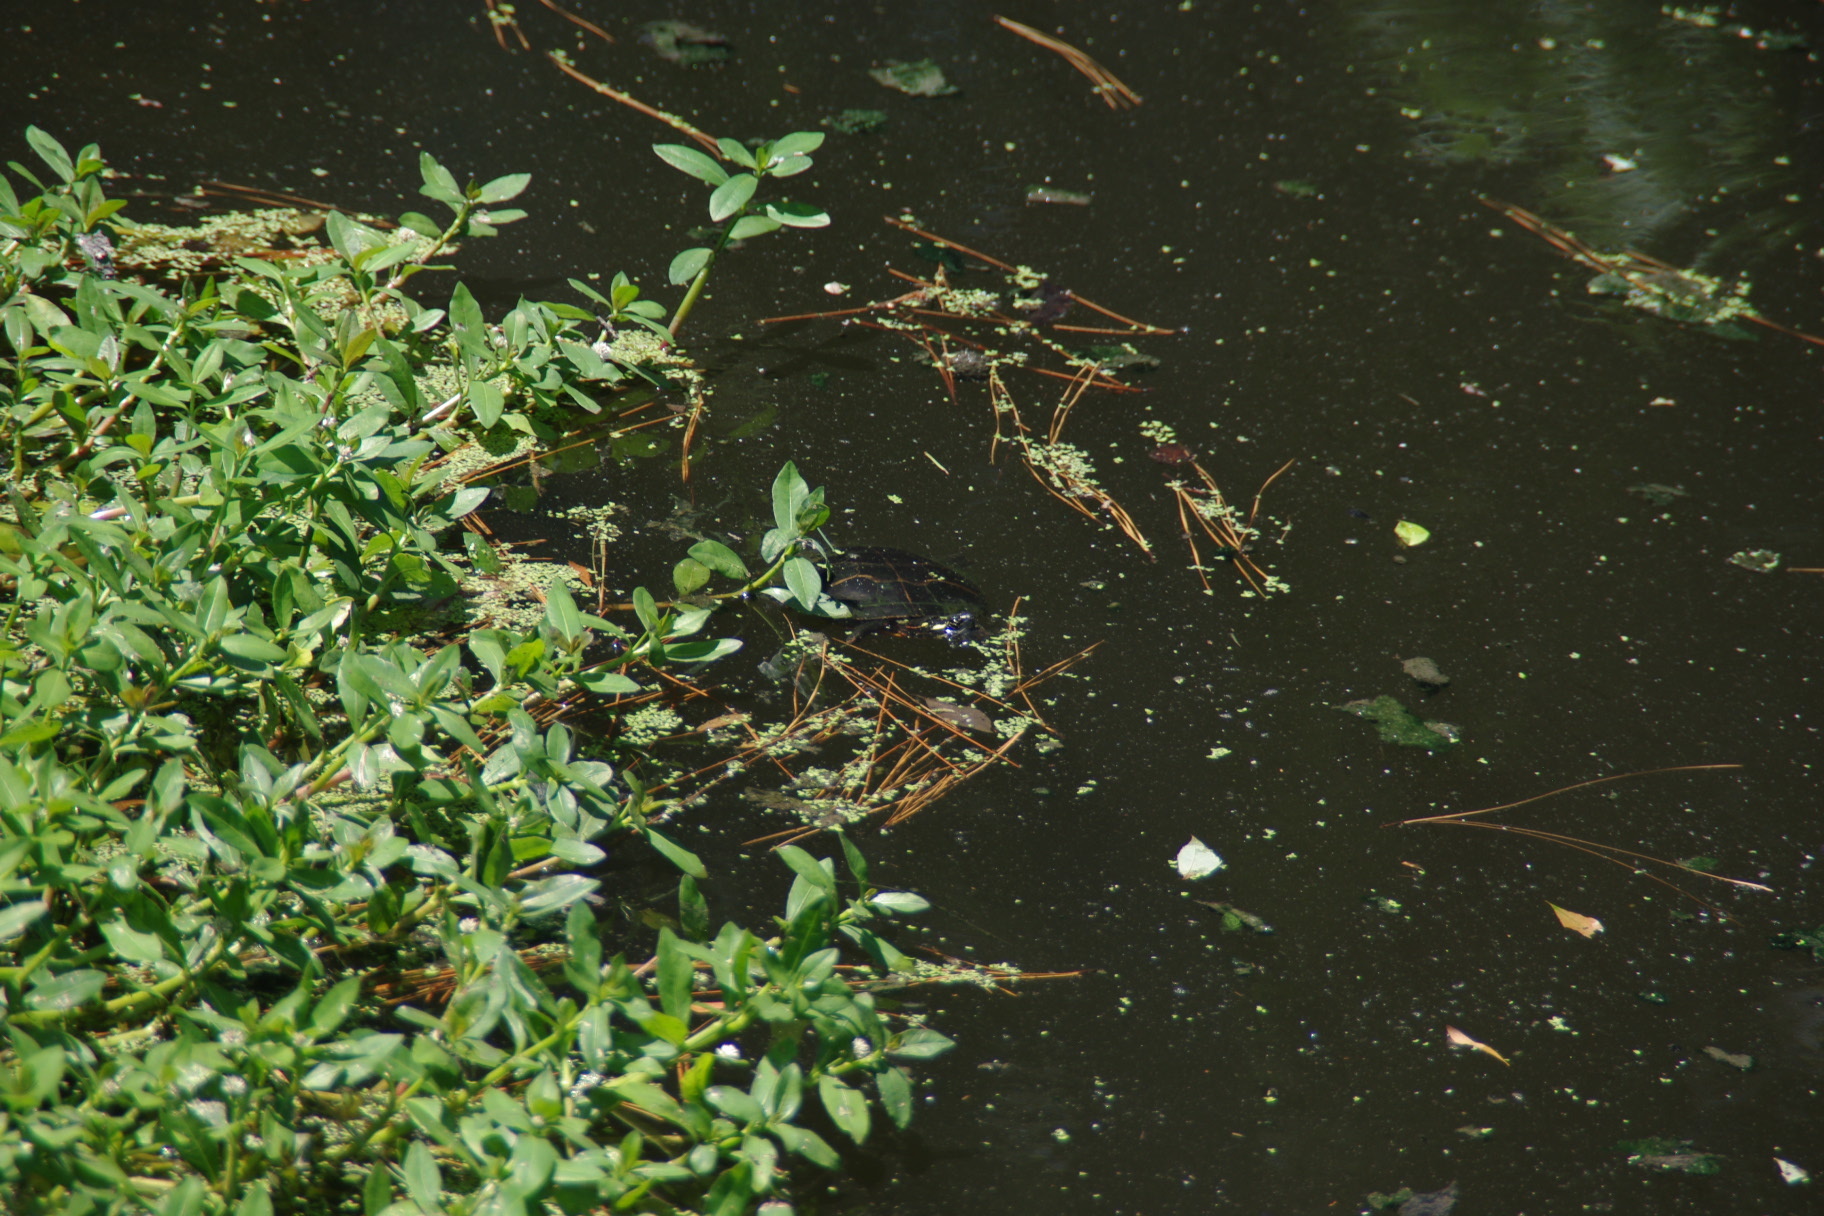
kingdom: Animalia
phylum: Chordata
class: Testudines
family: Emydidae
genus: Chrysemys
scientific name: Chrysemys picta
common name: Painted turtle
